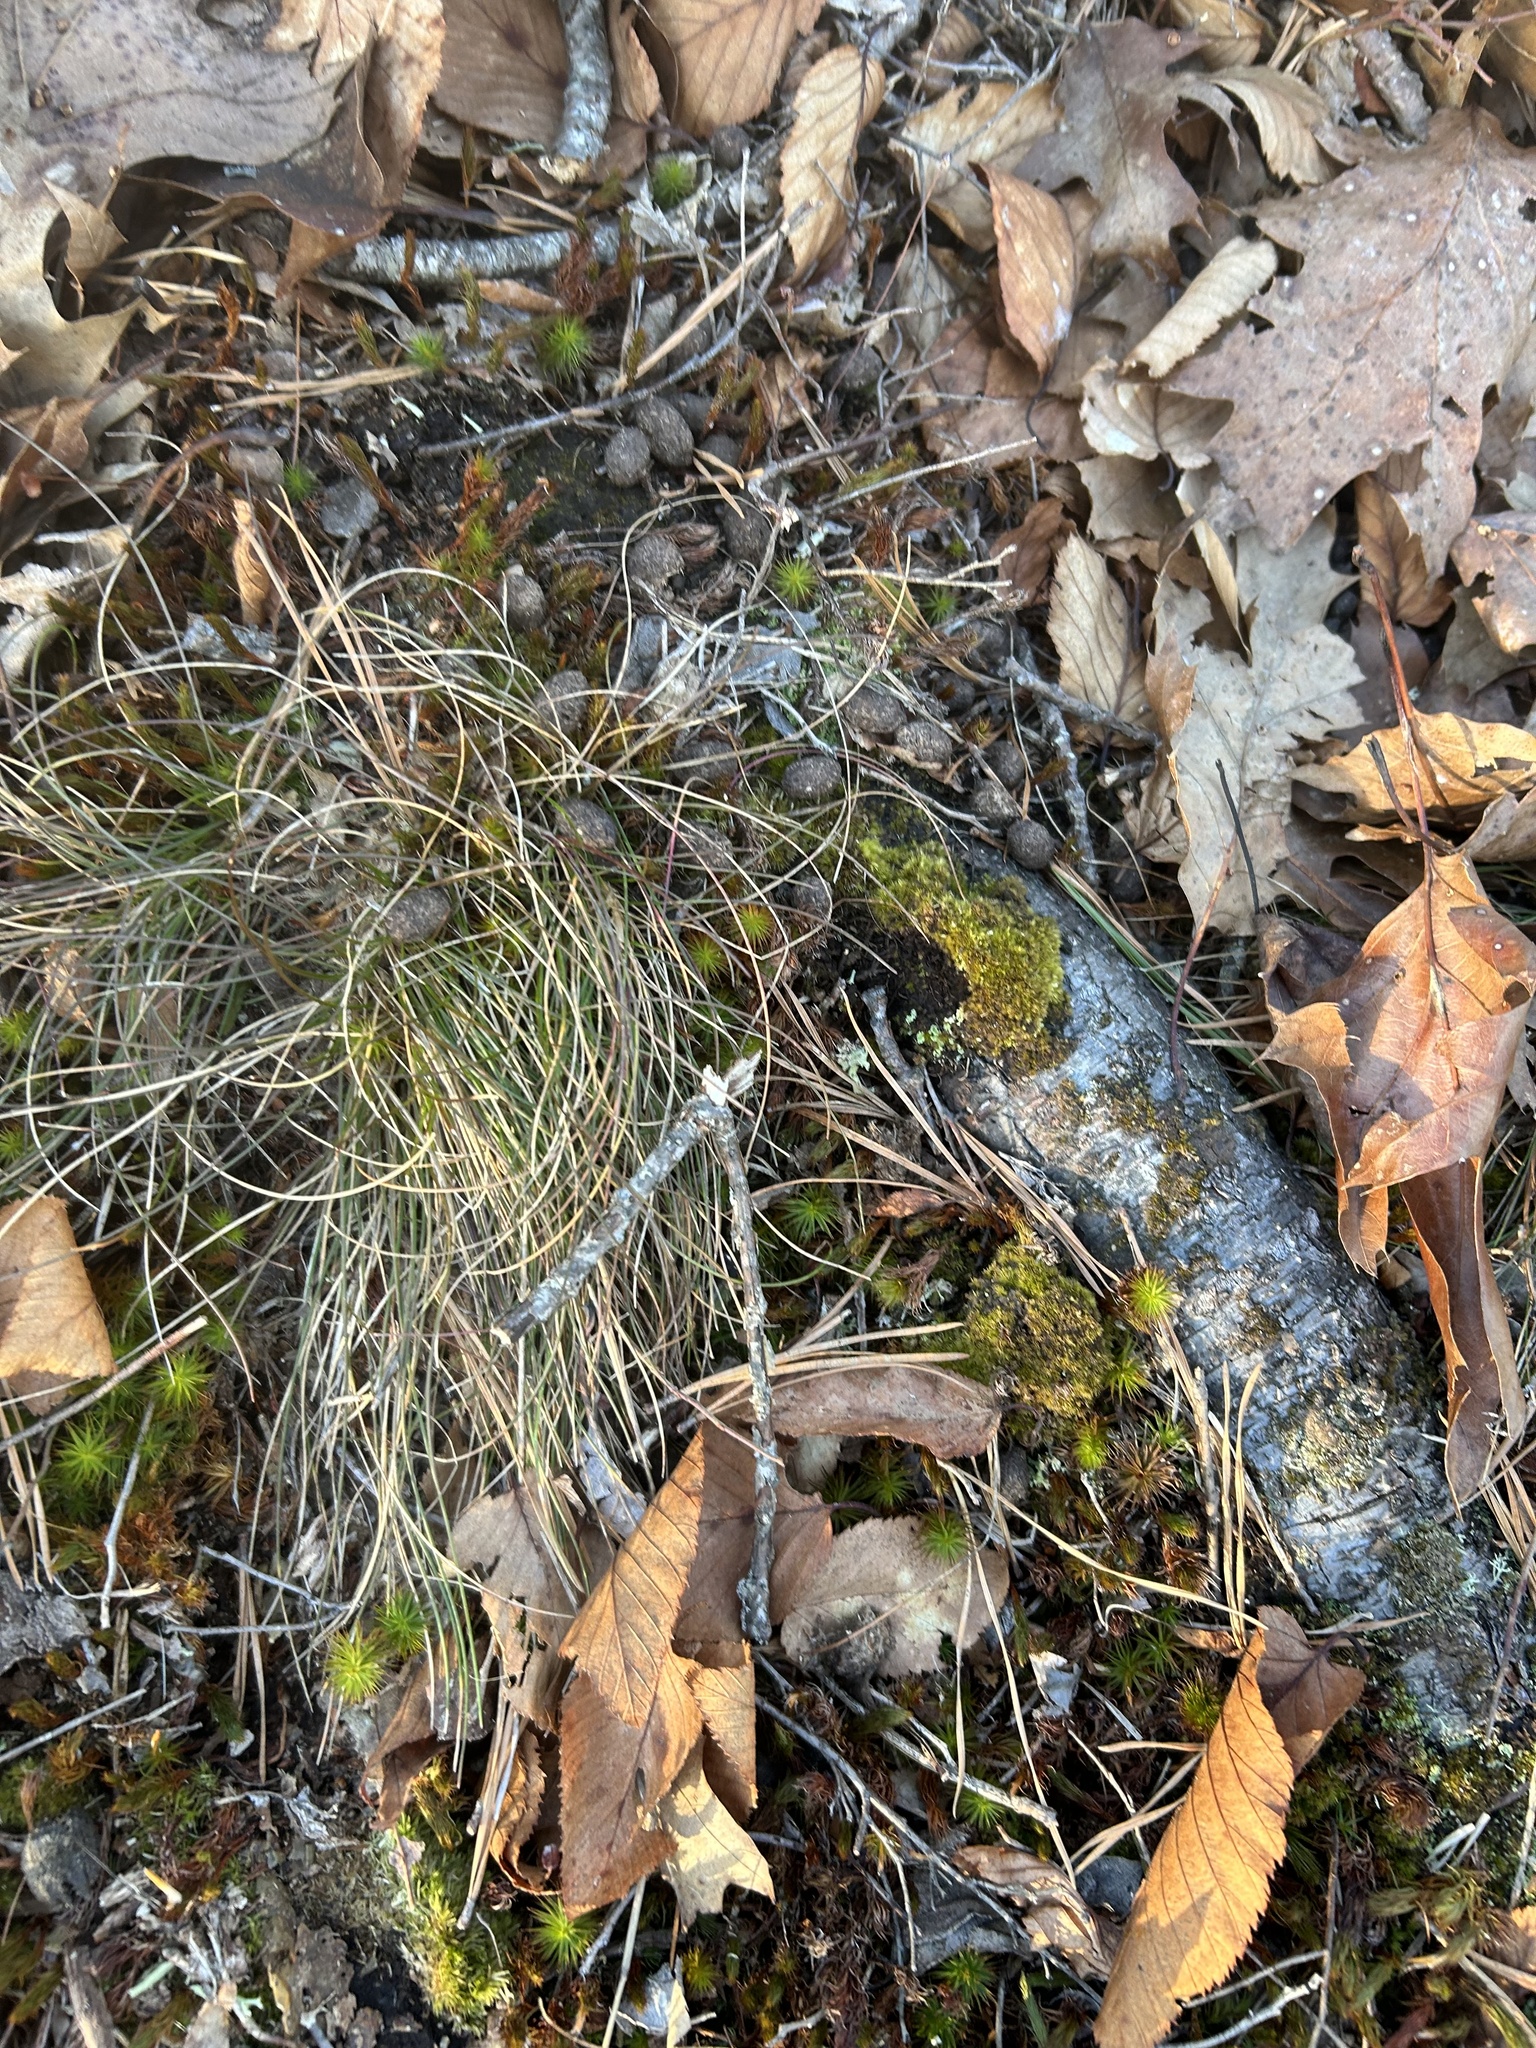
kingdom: Animalia
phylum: Chordata
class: Mammalia
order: Artiodactyla
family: Cervidae
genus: Odocoileus
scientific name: Odocoileus virginianus
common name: White-tailed deer
